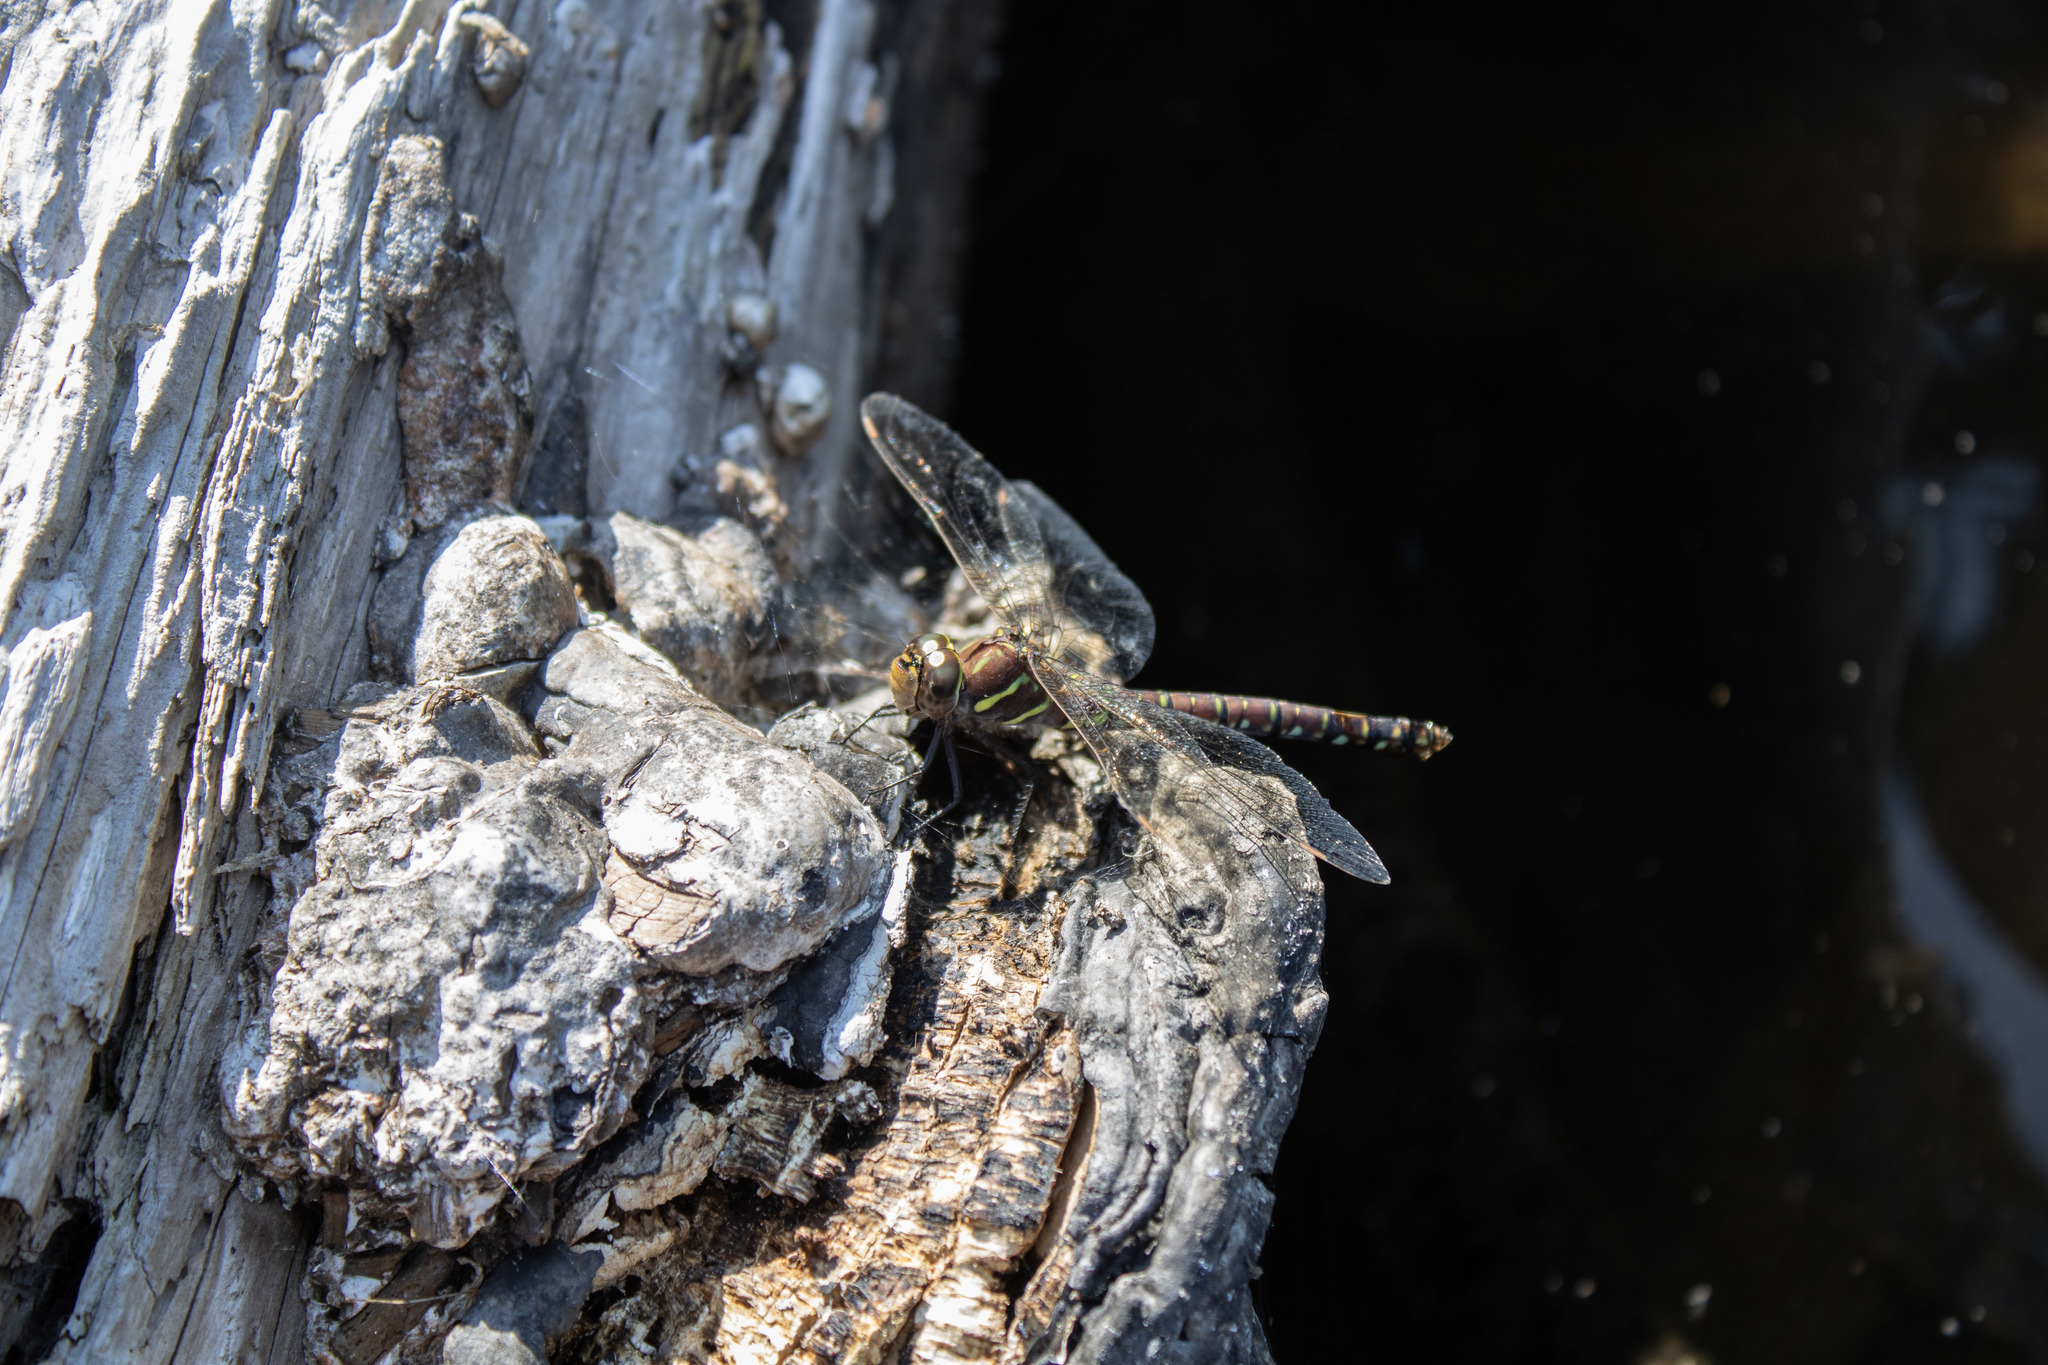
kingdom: Animalia
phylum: Arthropoda
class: Insecta
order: Odonata
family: Aeshnidae
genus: Aeshna
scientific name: Aeshna umbrosa
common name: Shadow darner
